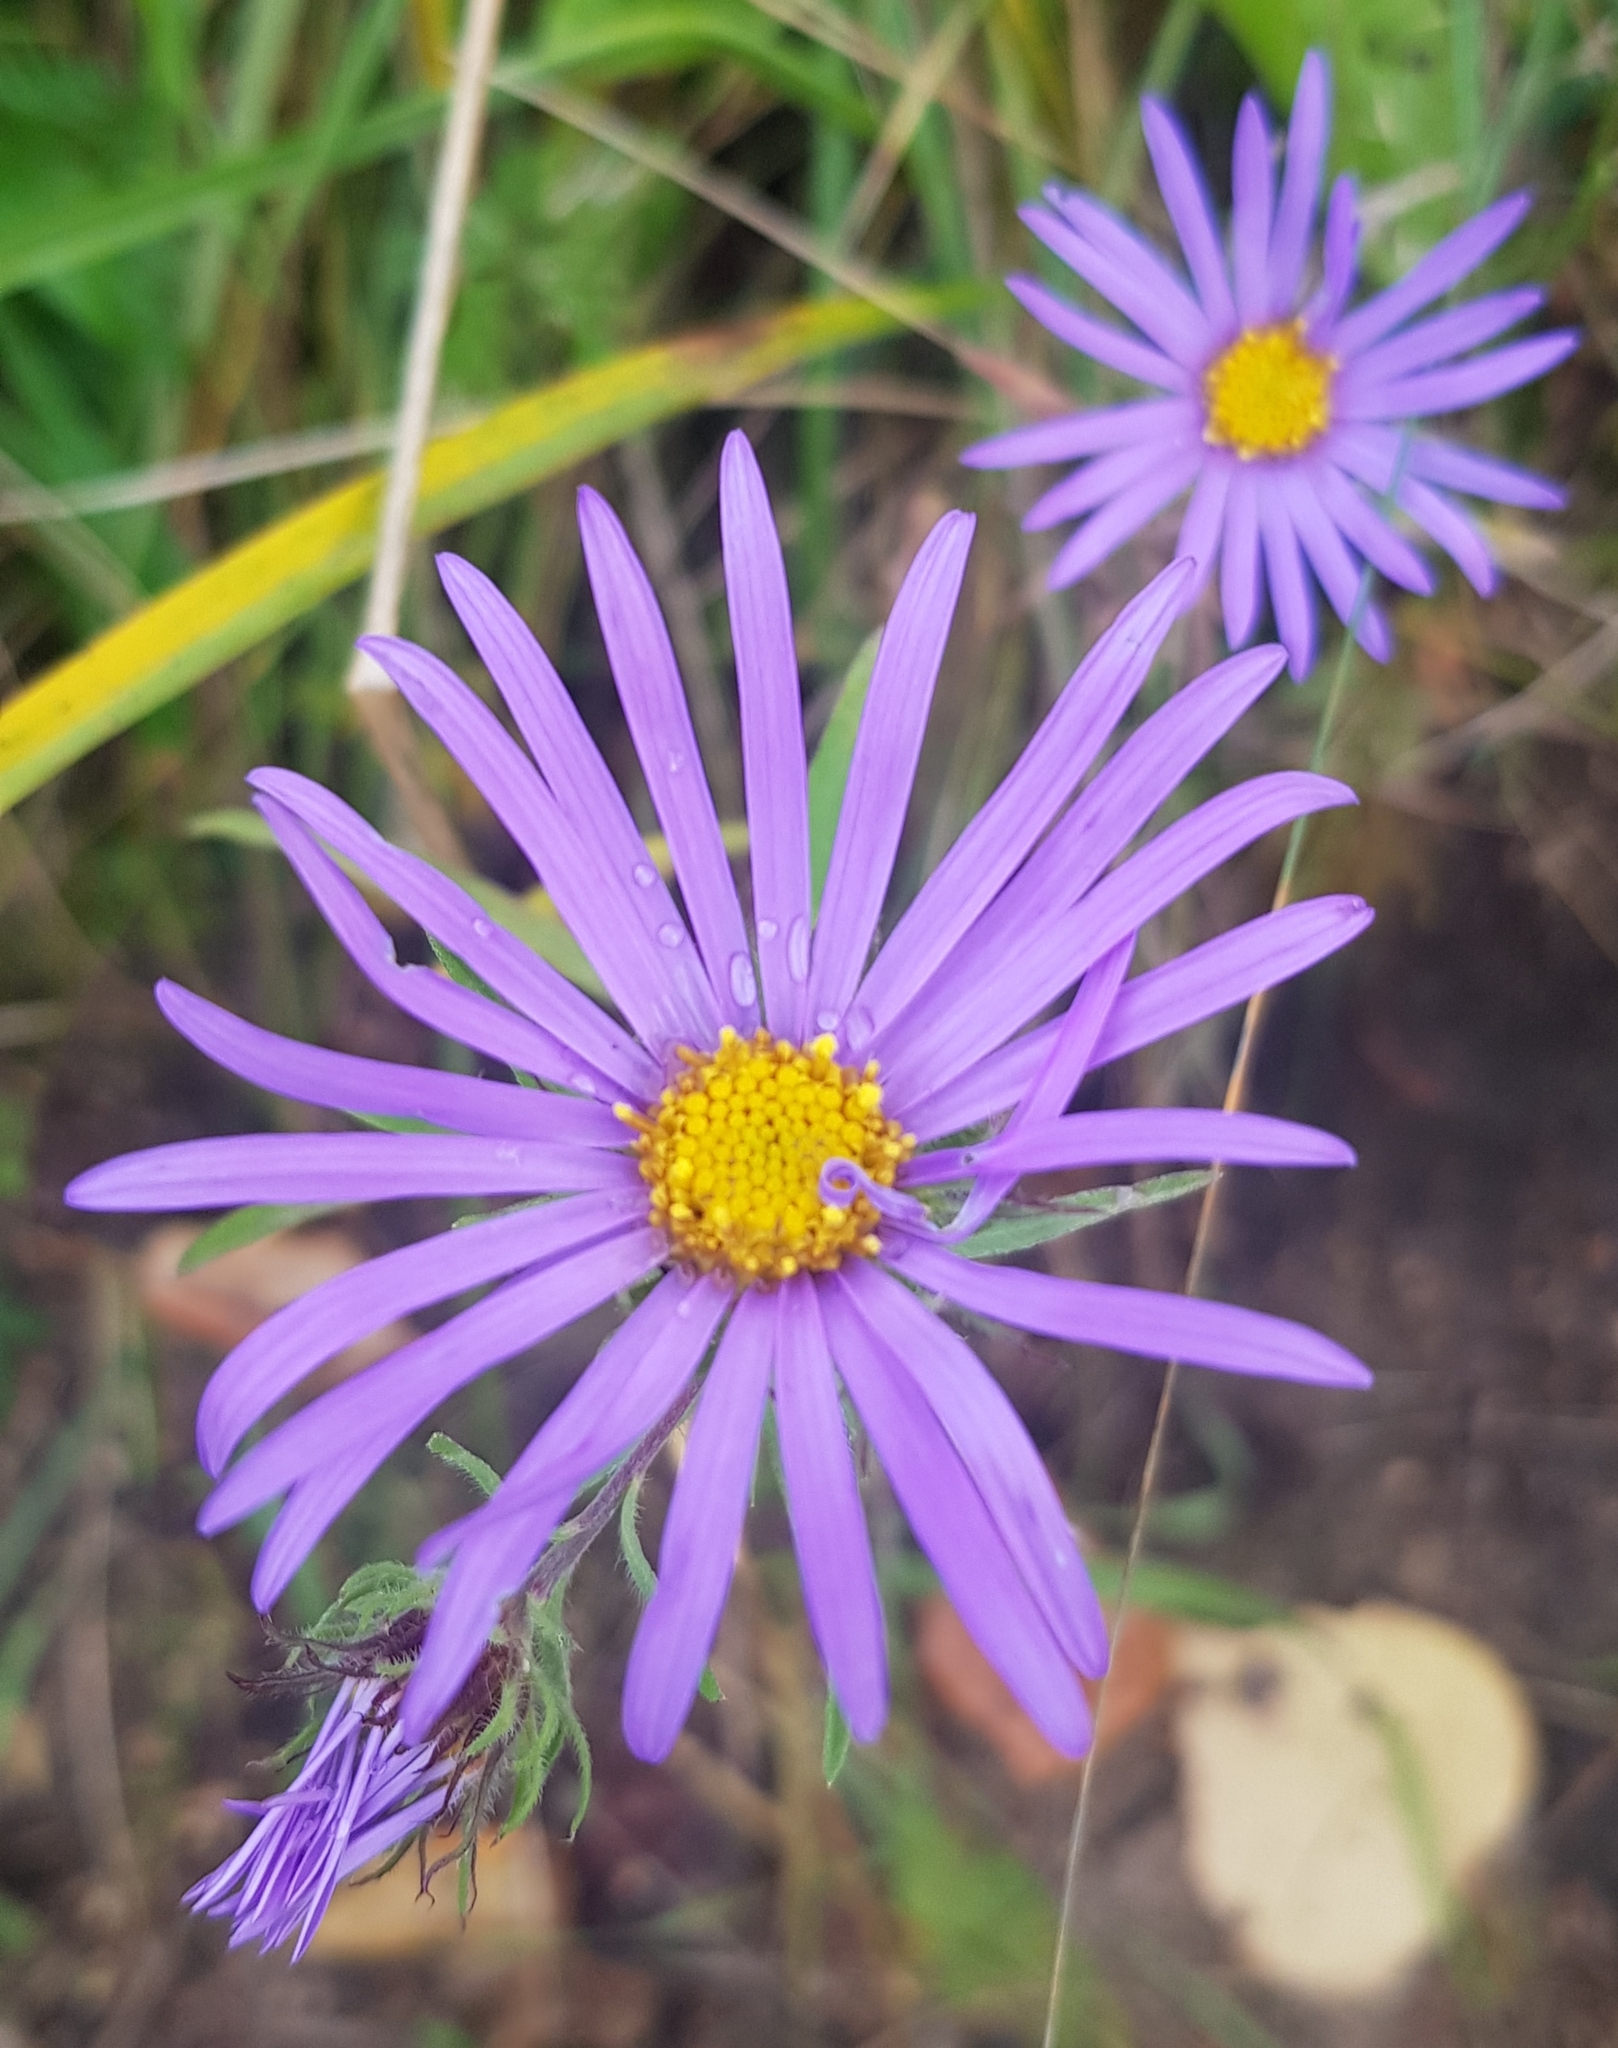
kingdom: Plantae
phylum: Tracheophyta
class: Magnoliopsida
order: Asterales
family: Asteraceae
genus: Aster
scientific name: Aster alpinus
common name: Alpine aster
